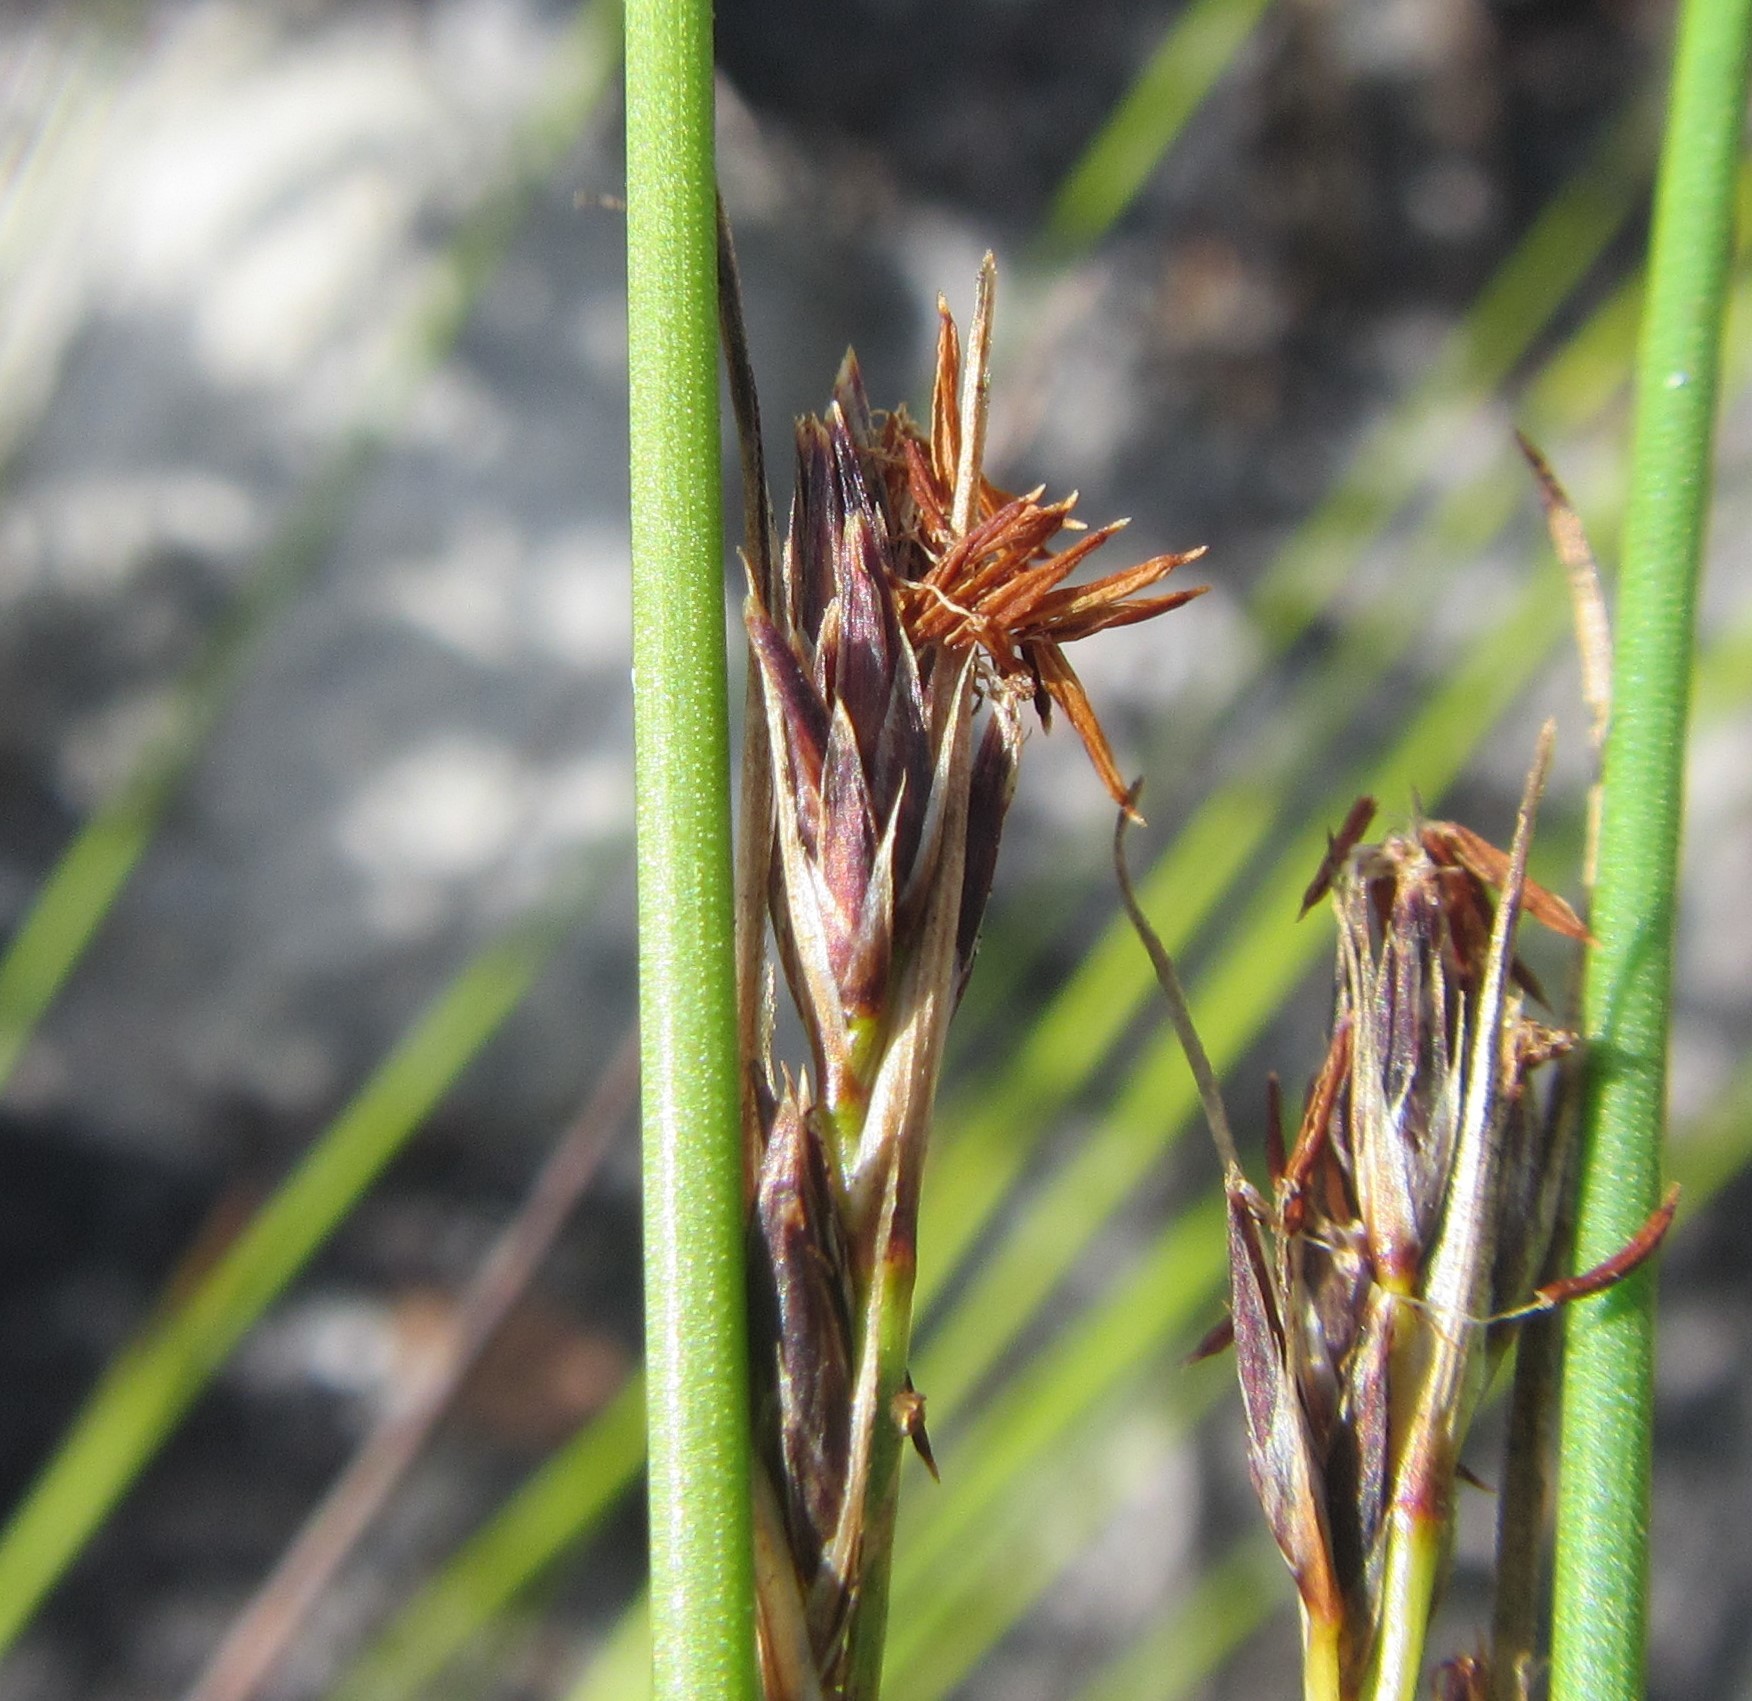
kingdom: Plantae
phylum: Tracheophyta
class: Liliopsida
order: Poales
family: Cyperaceae
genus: Schoenus
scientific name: Schoenus auritus
